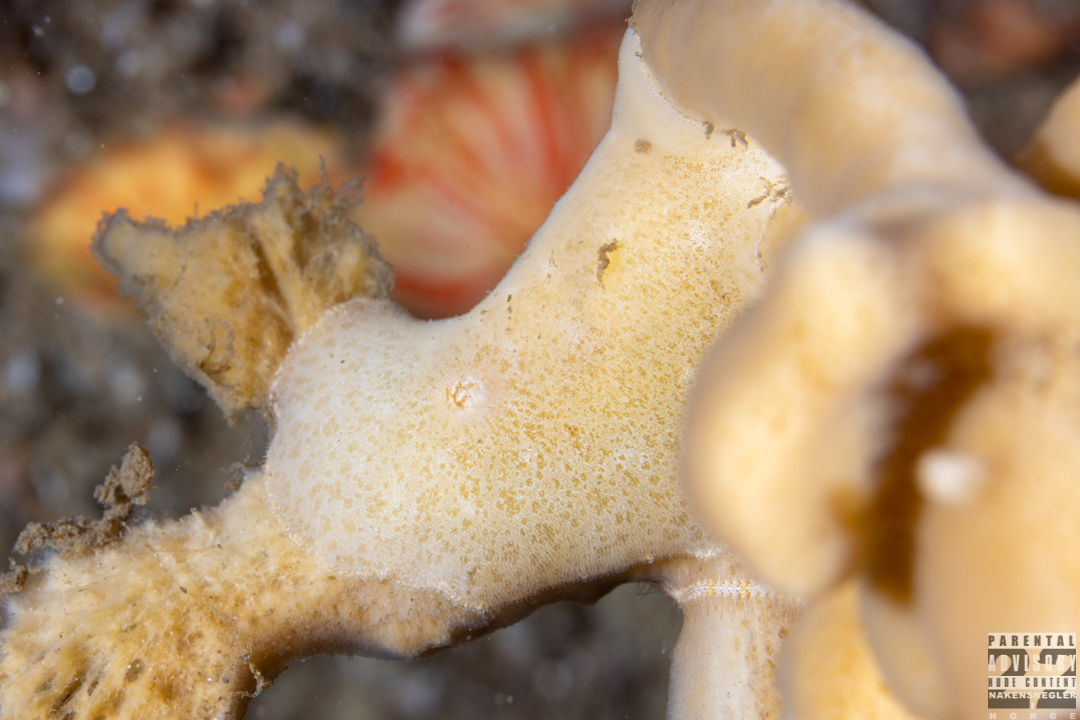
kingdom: Animalia
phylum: Mollusca
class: Gastropoda
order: Nudibranchia
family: Discodorididae
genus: Jorunna
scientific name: Jorunna tomentosa
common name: Grey sea slug
